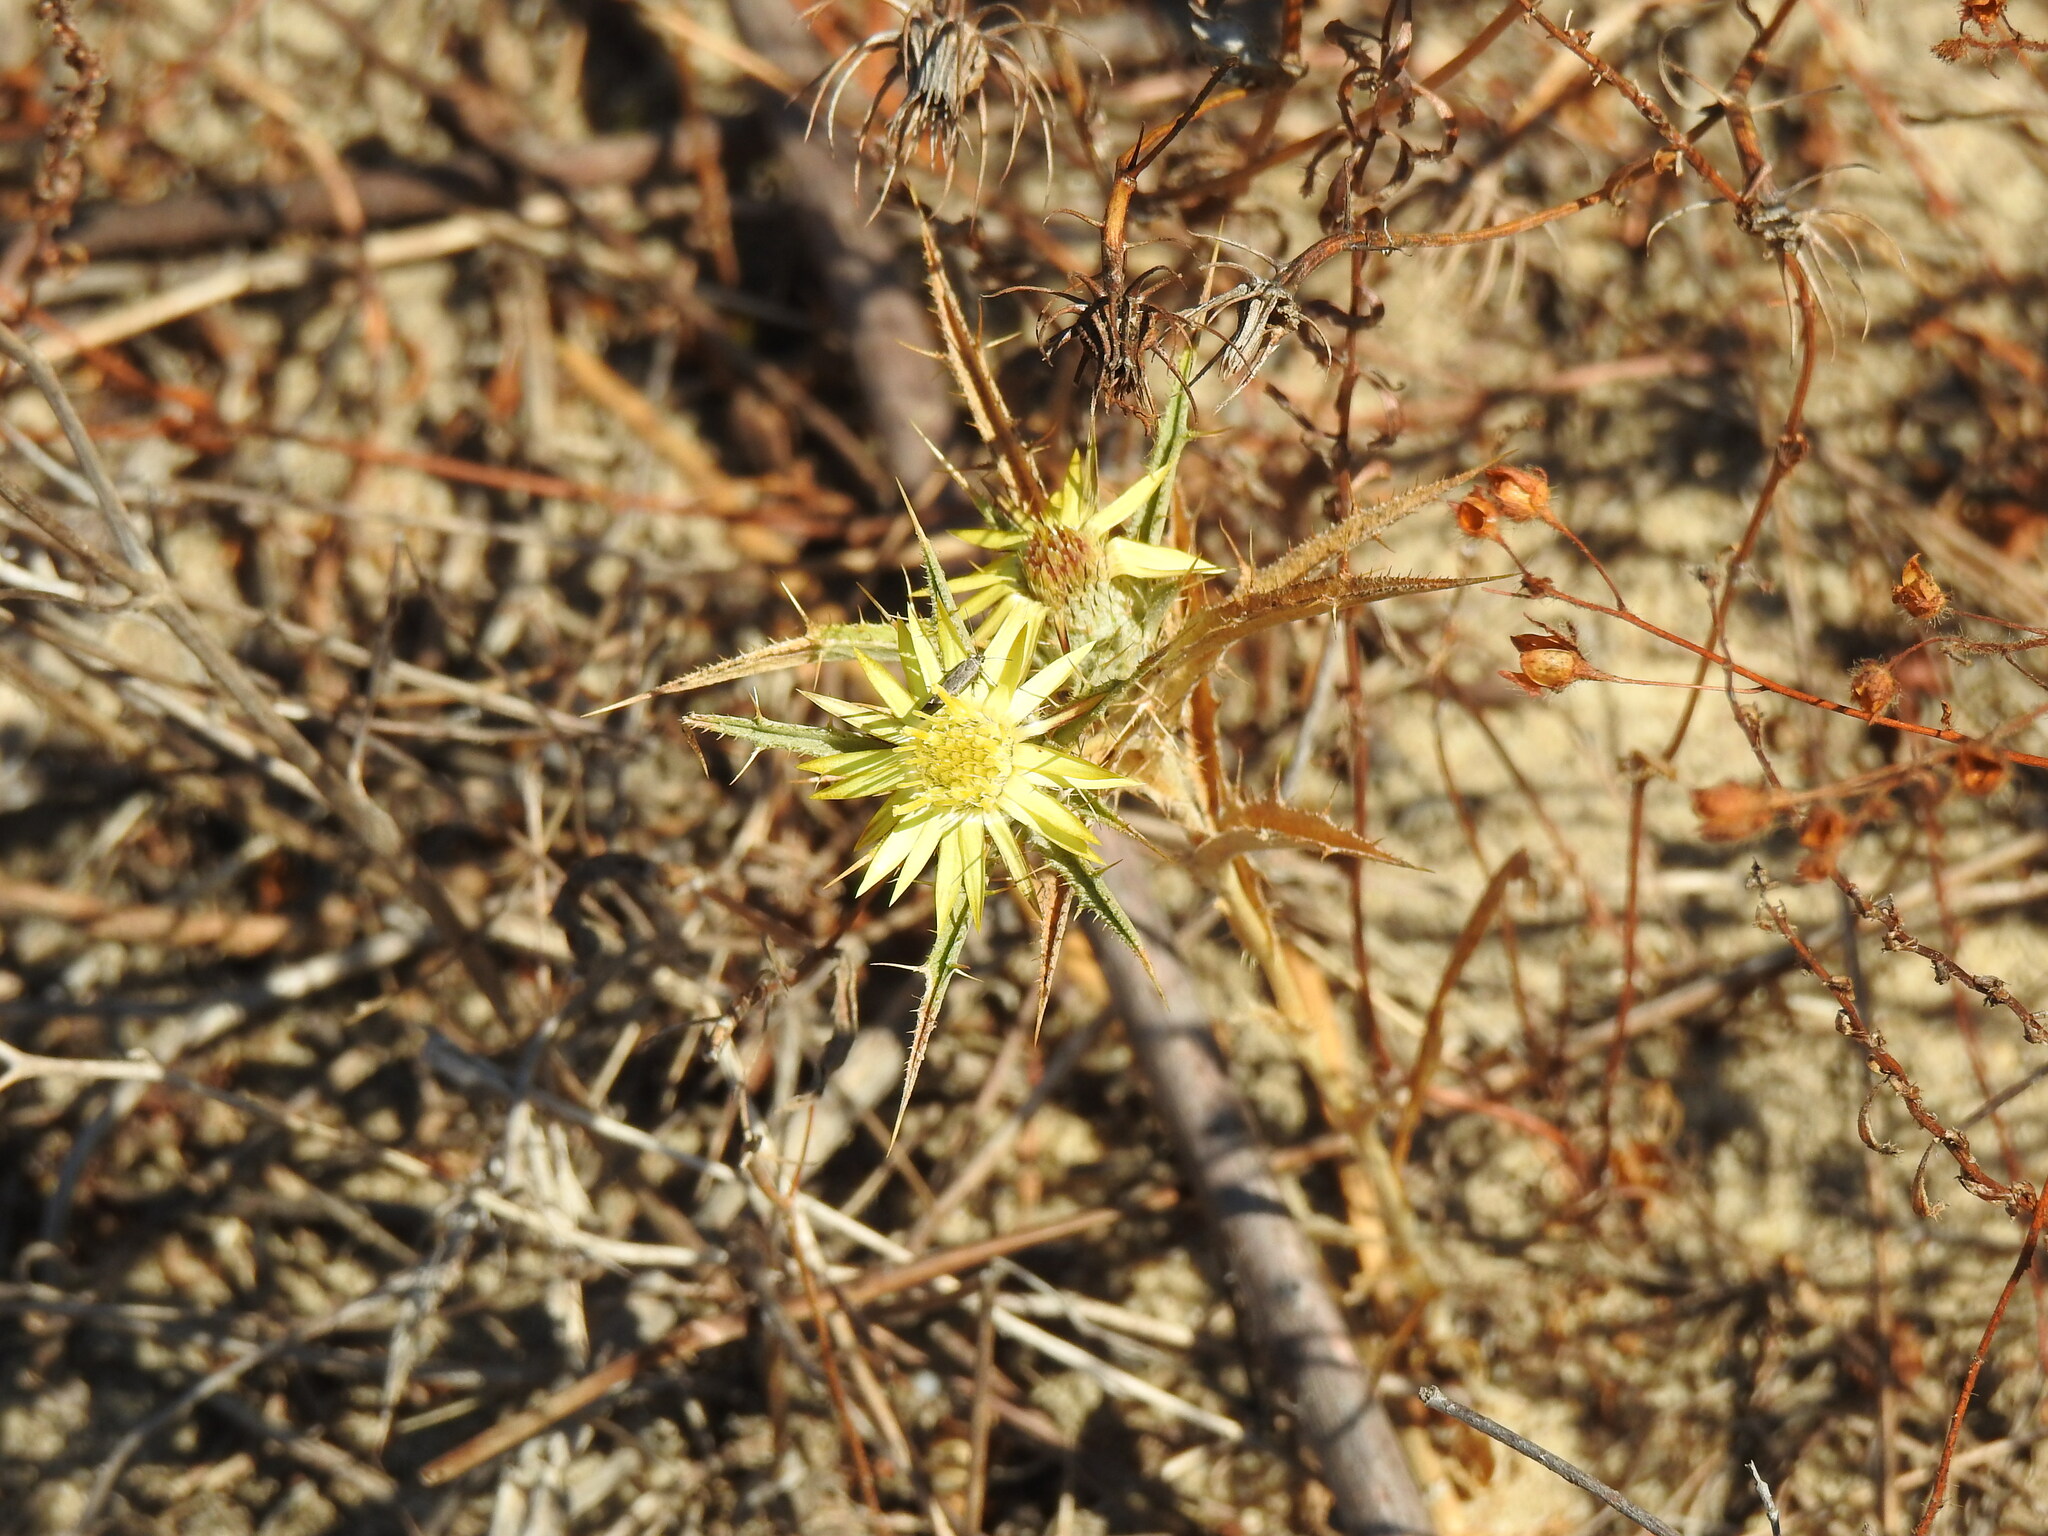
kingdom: Plantae
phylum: Tracheophyta
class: Magnoliopsida
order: Asterales
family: Asteraceae
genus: Carlina
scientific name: Carlina racemosa
